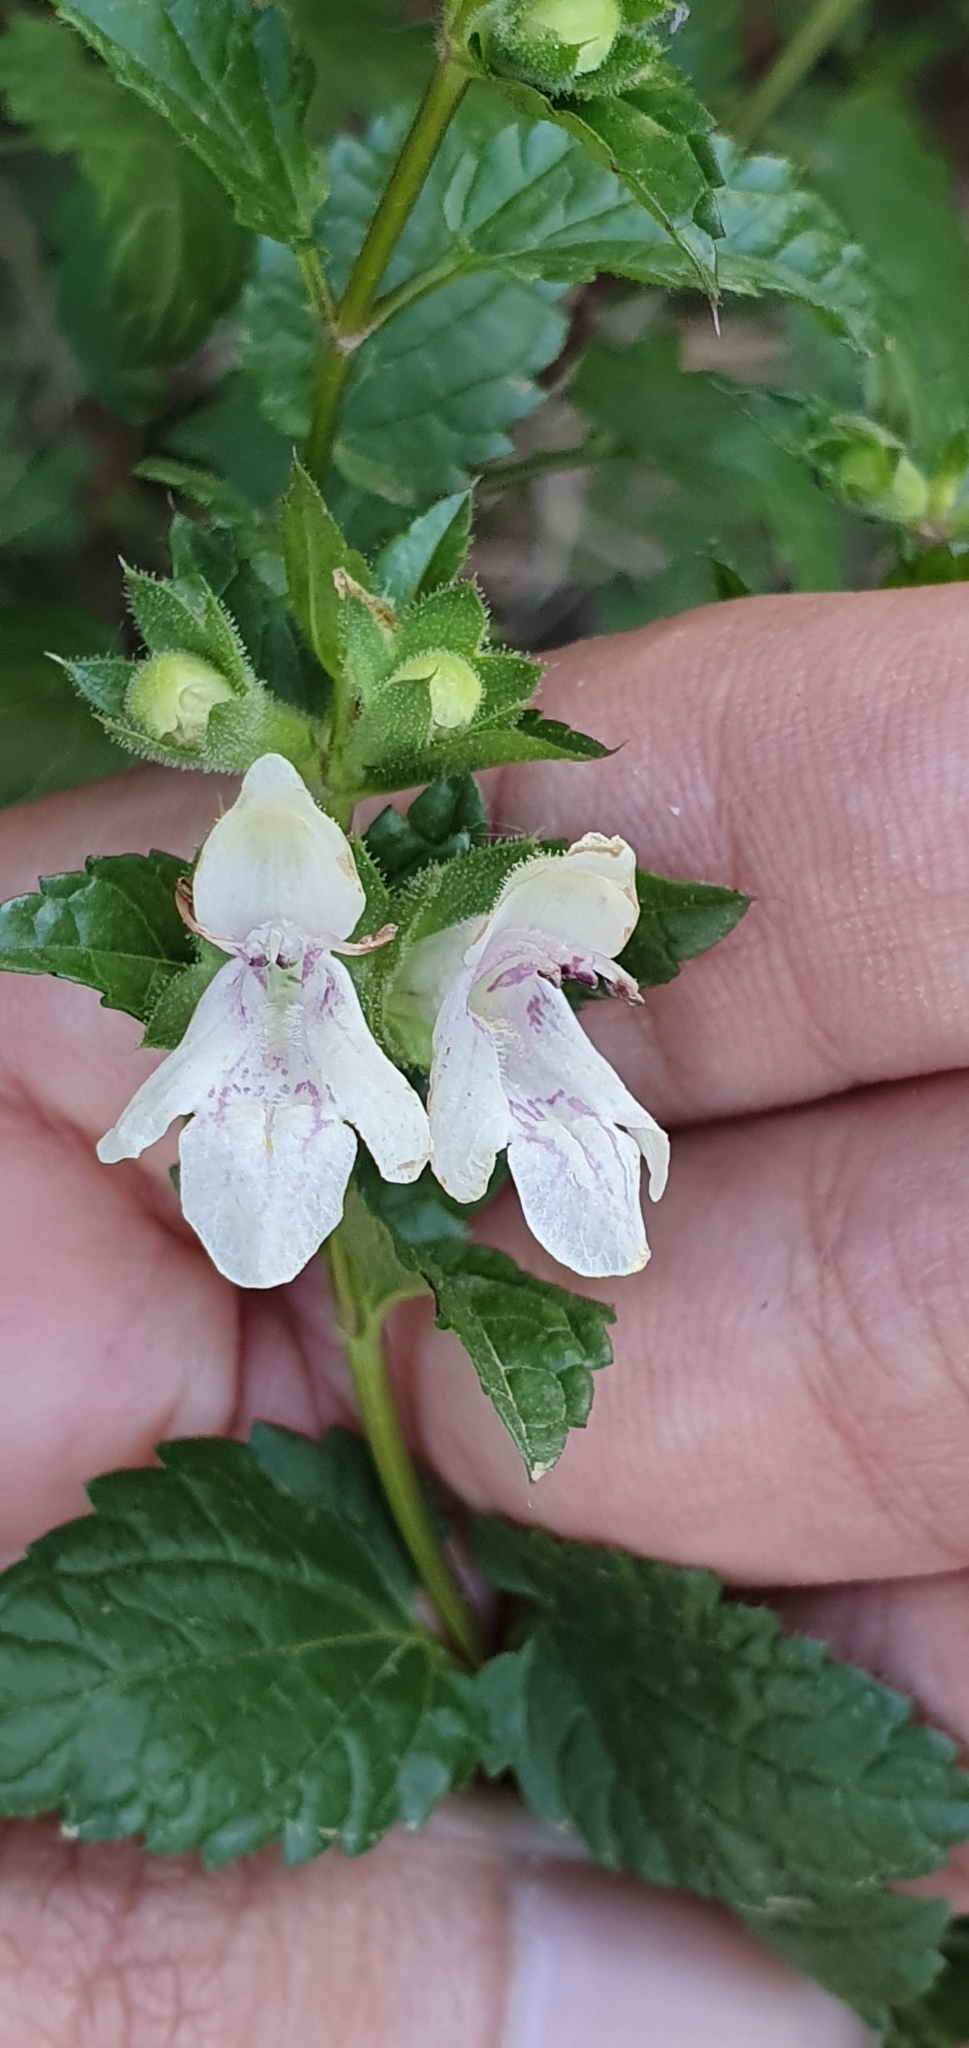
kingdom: Plantae
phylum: Tracheophyta
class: Magnoliopsida
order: Lamiales
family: Lamiaceae
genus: Prasium
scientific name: Prasium majus
